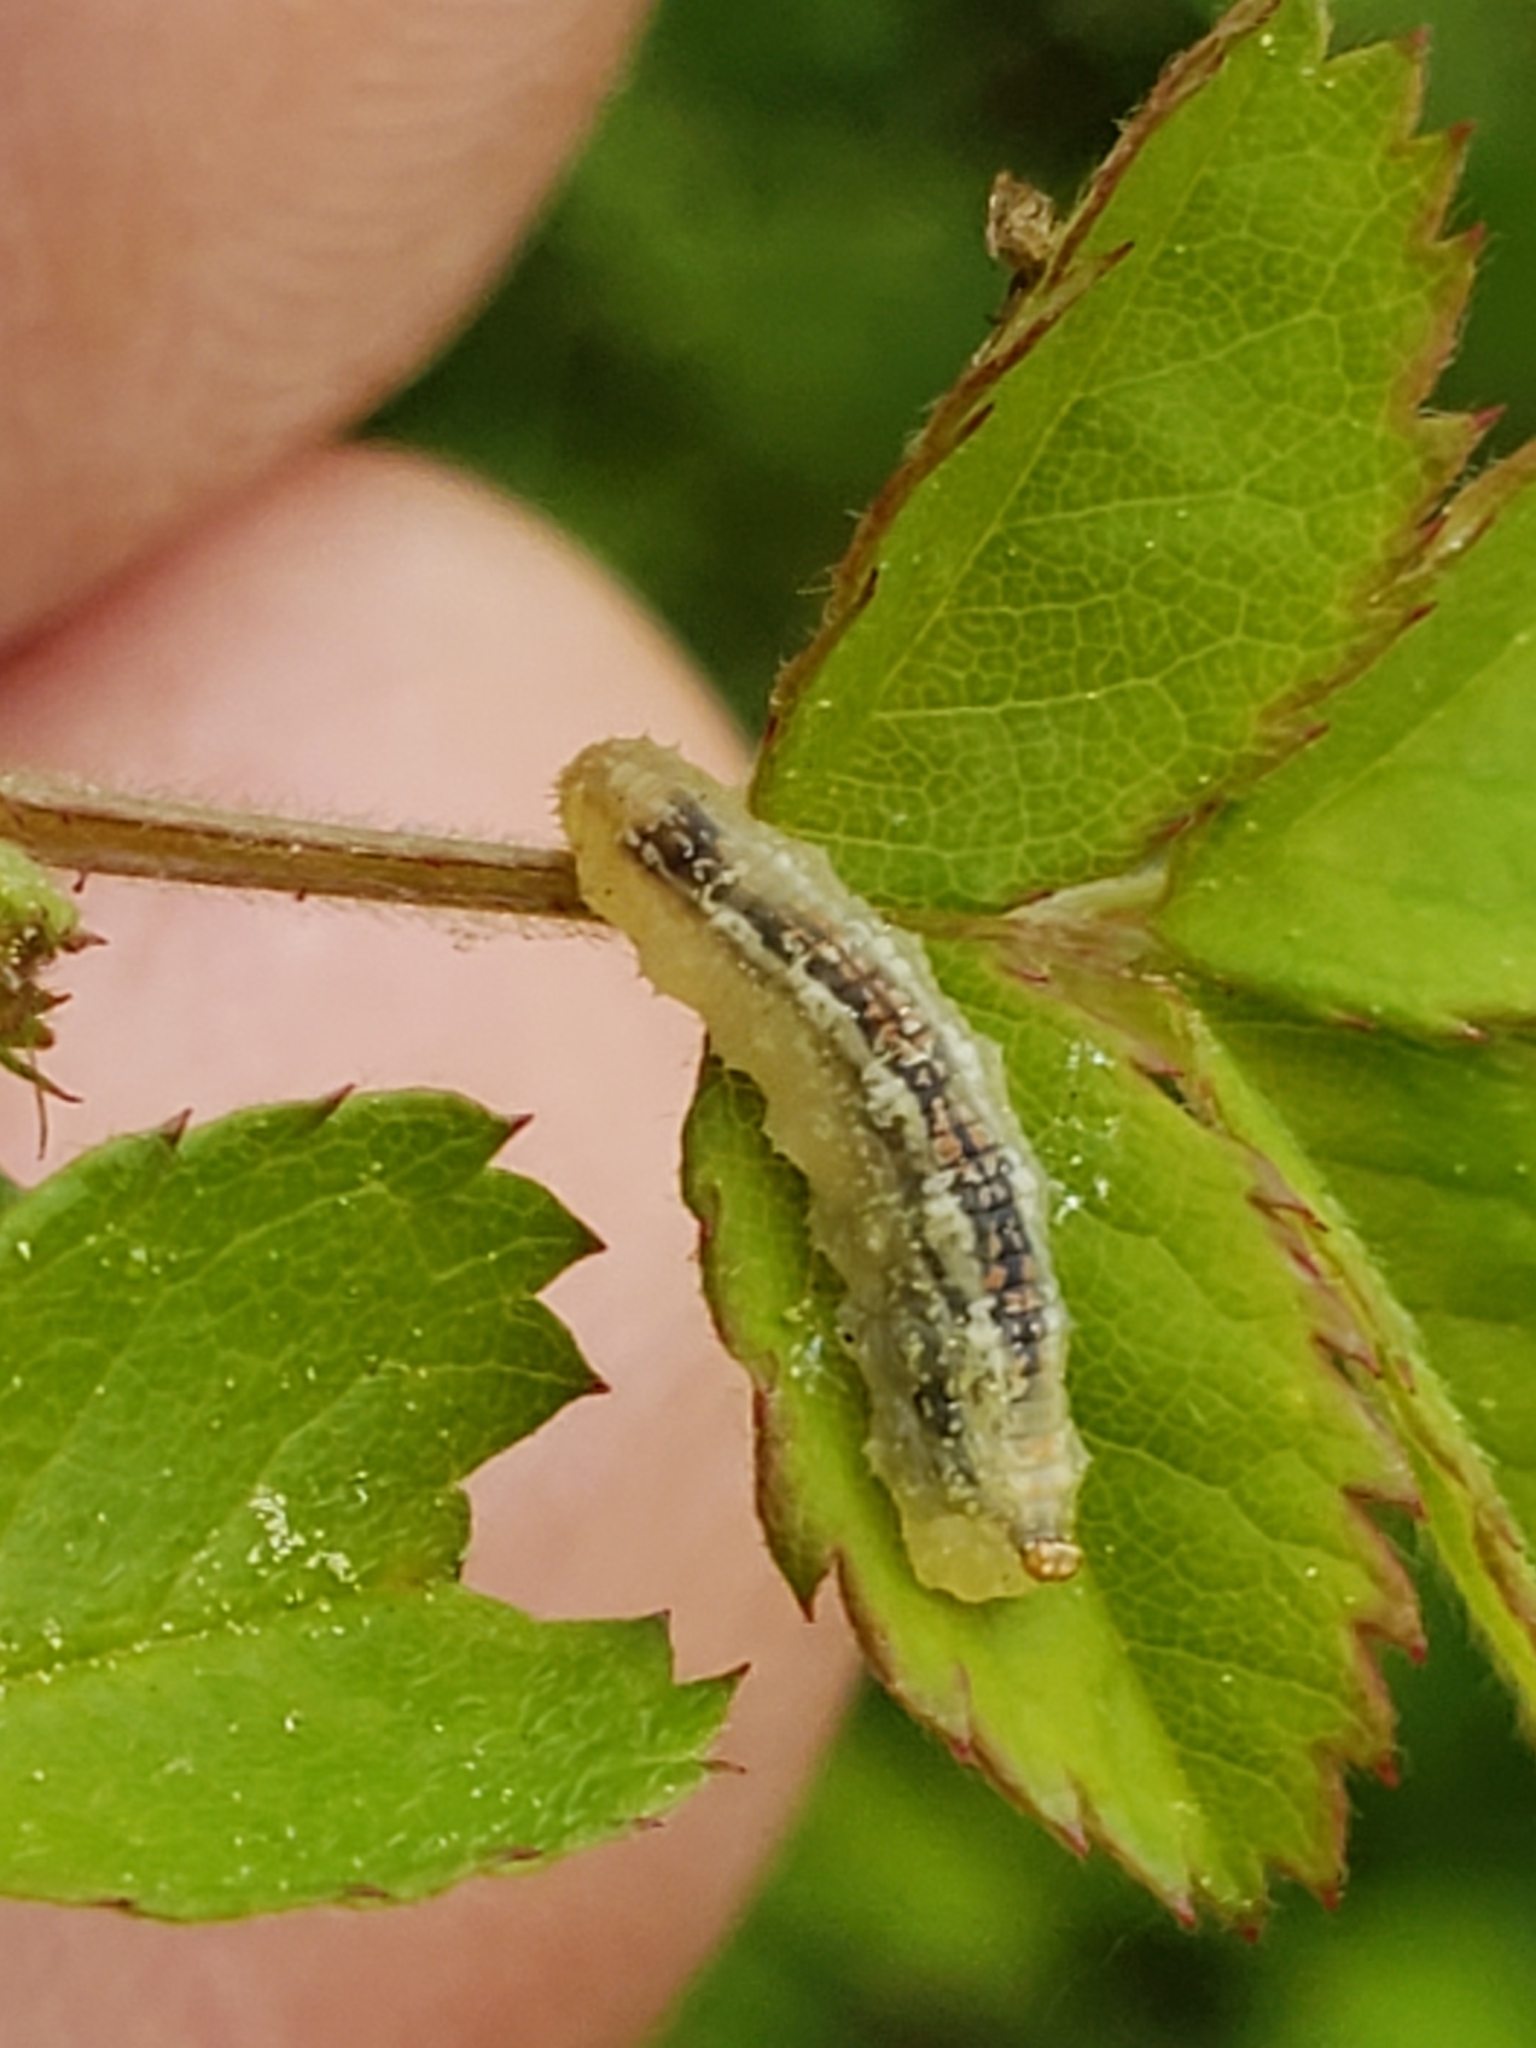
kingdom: Animalia
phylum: Arthropoda
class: Insecta
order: Diptera
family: Syrphidae
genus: Syrphus
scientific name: Syrphus
